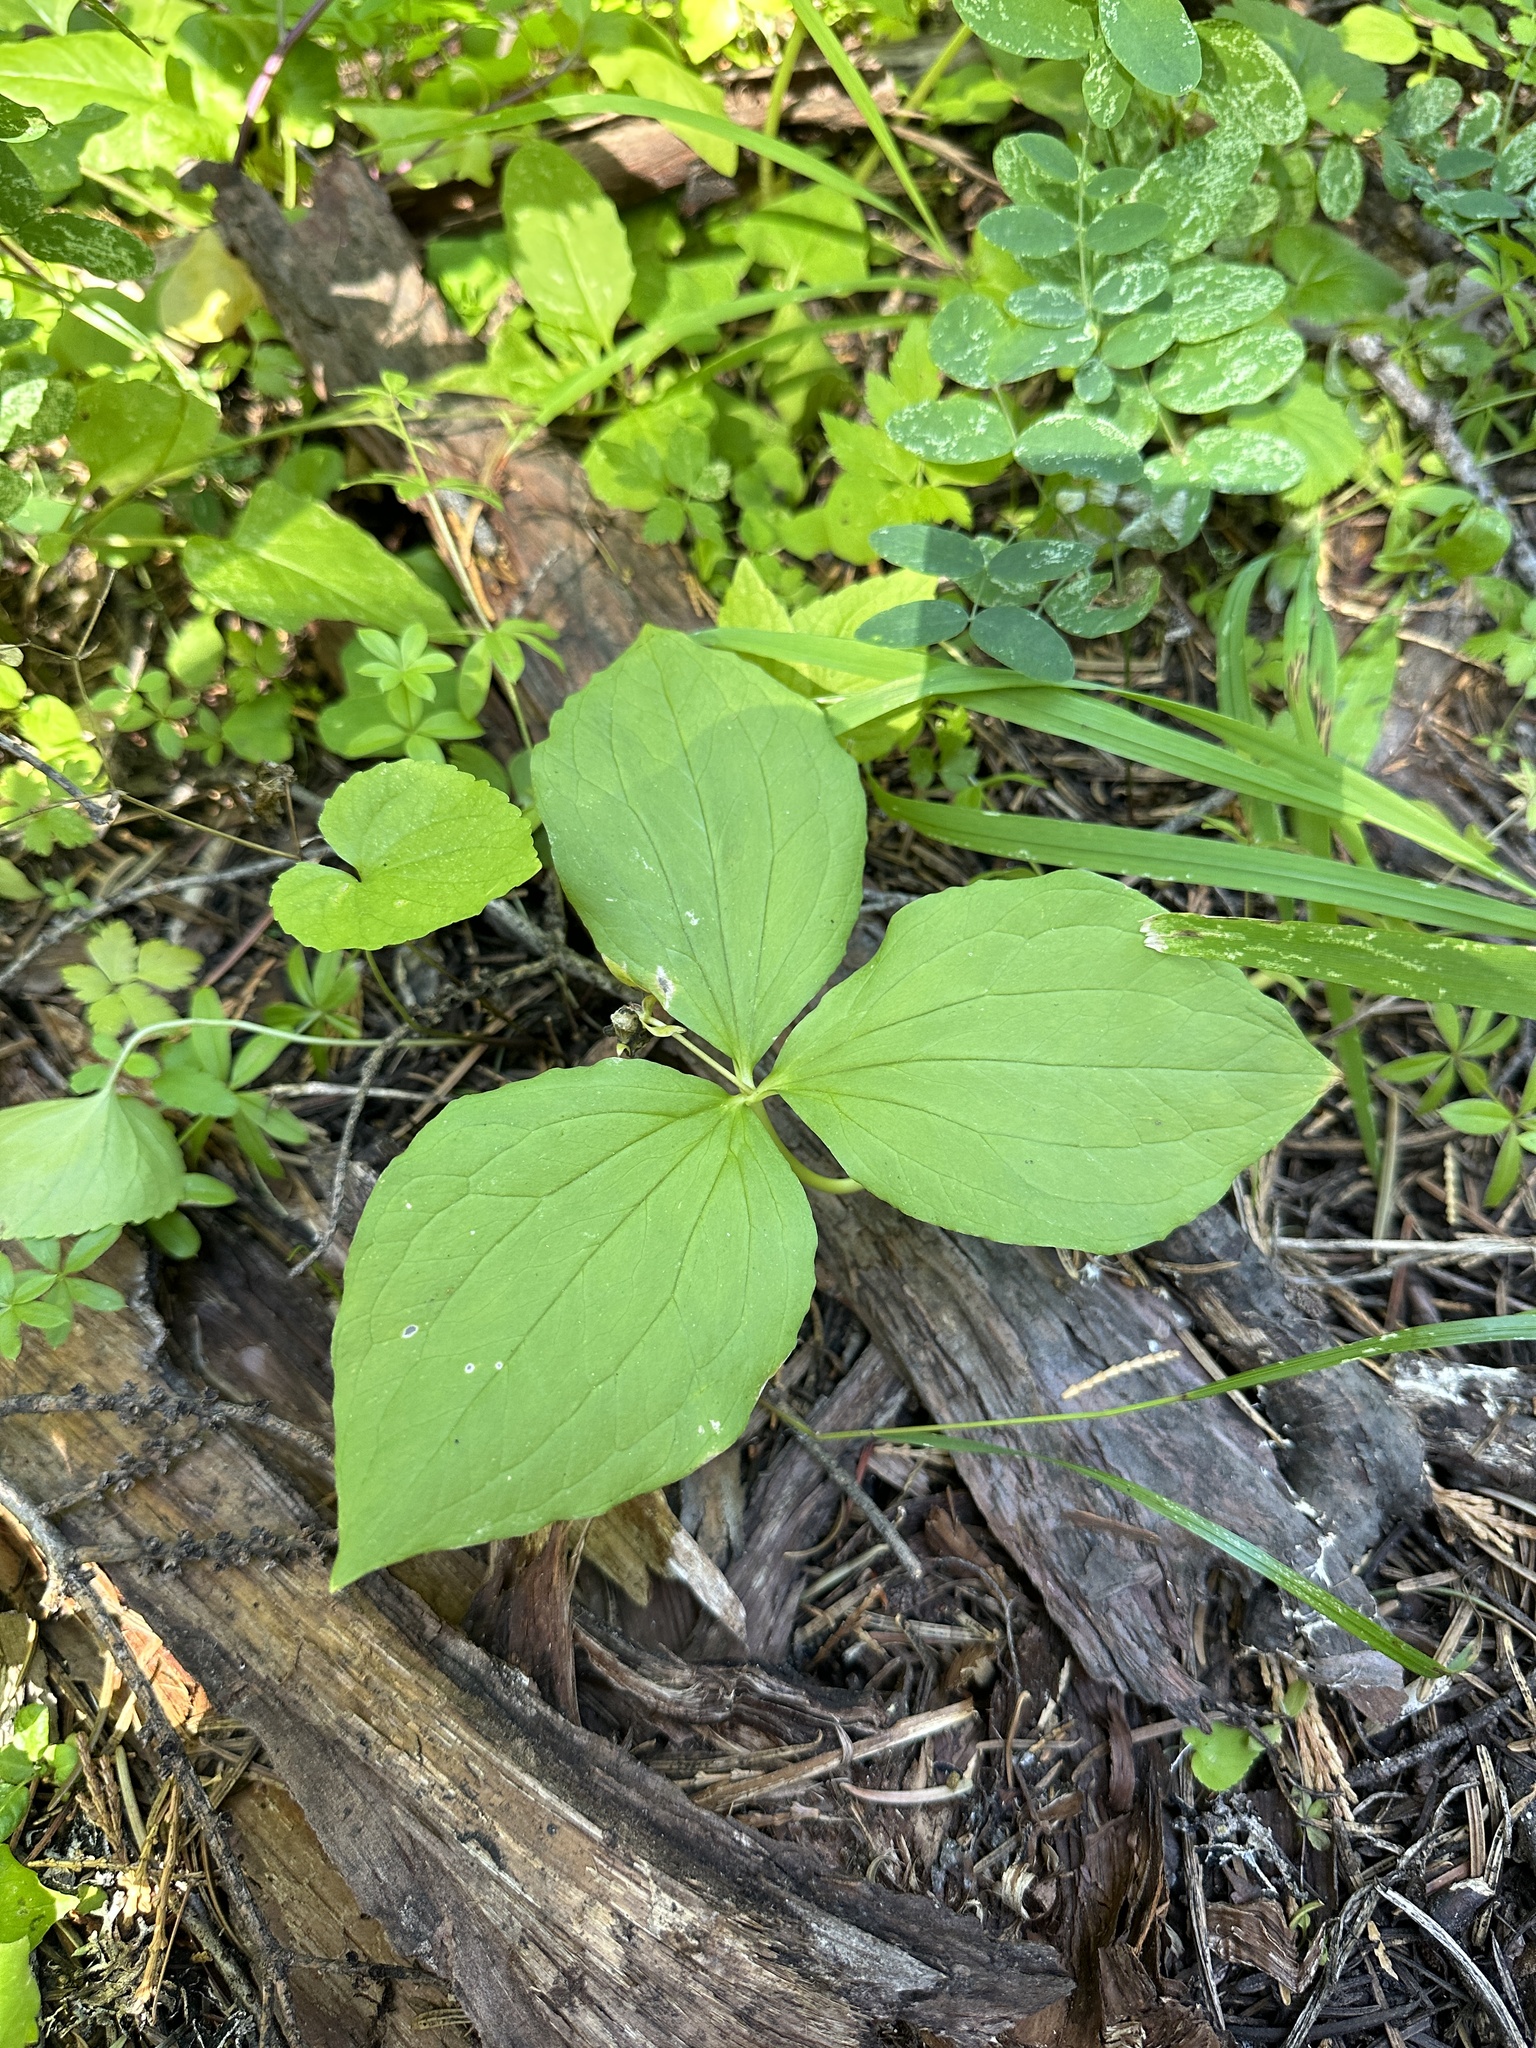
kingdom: Plantae
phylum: Tracheophyta
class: Liliopsida
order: Liliales
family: Melanthiaceae
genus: Trillium
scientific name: Trillium ovatum
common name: Pacific trillium
